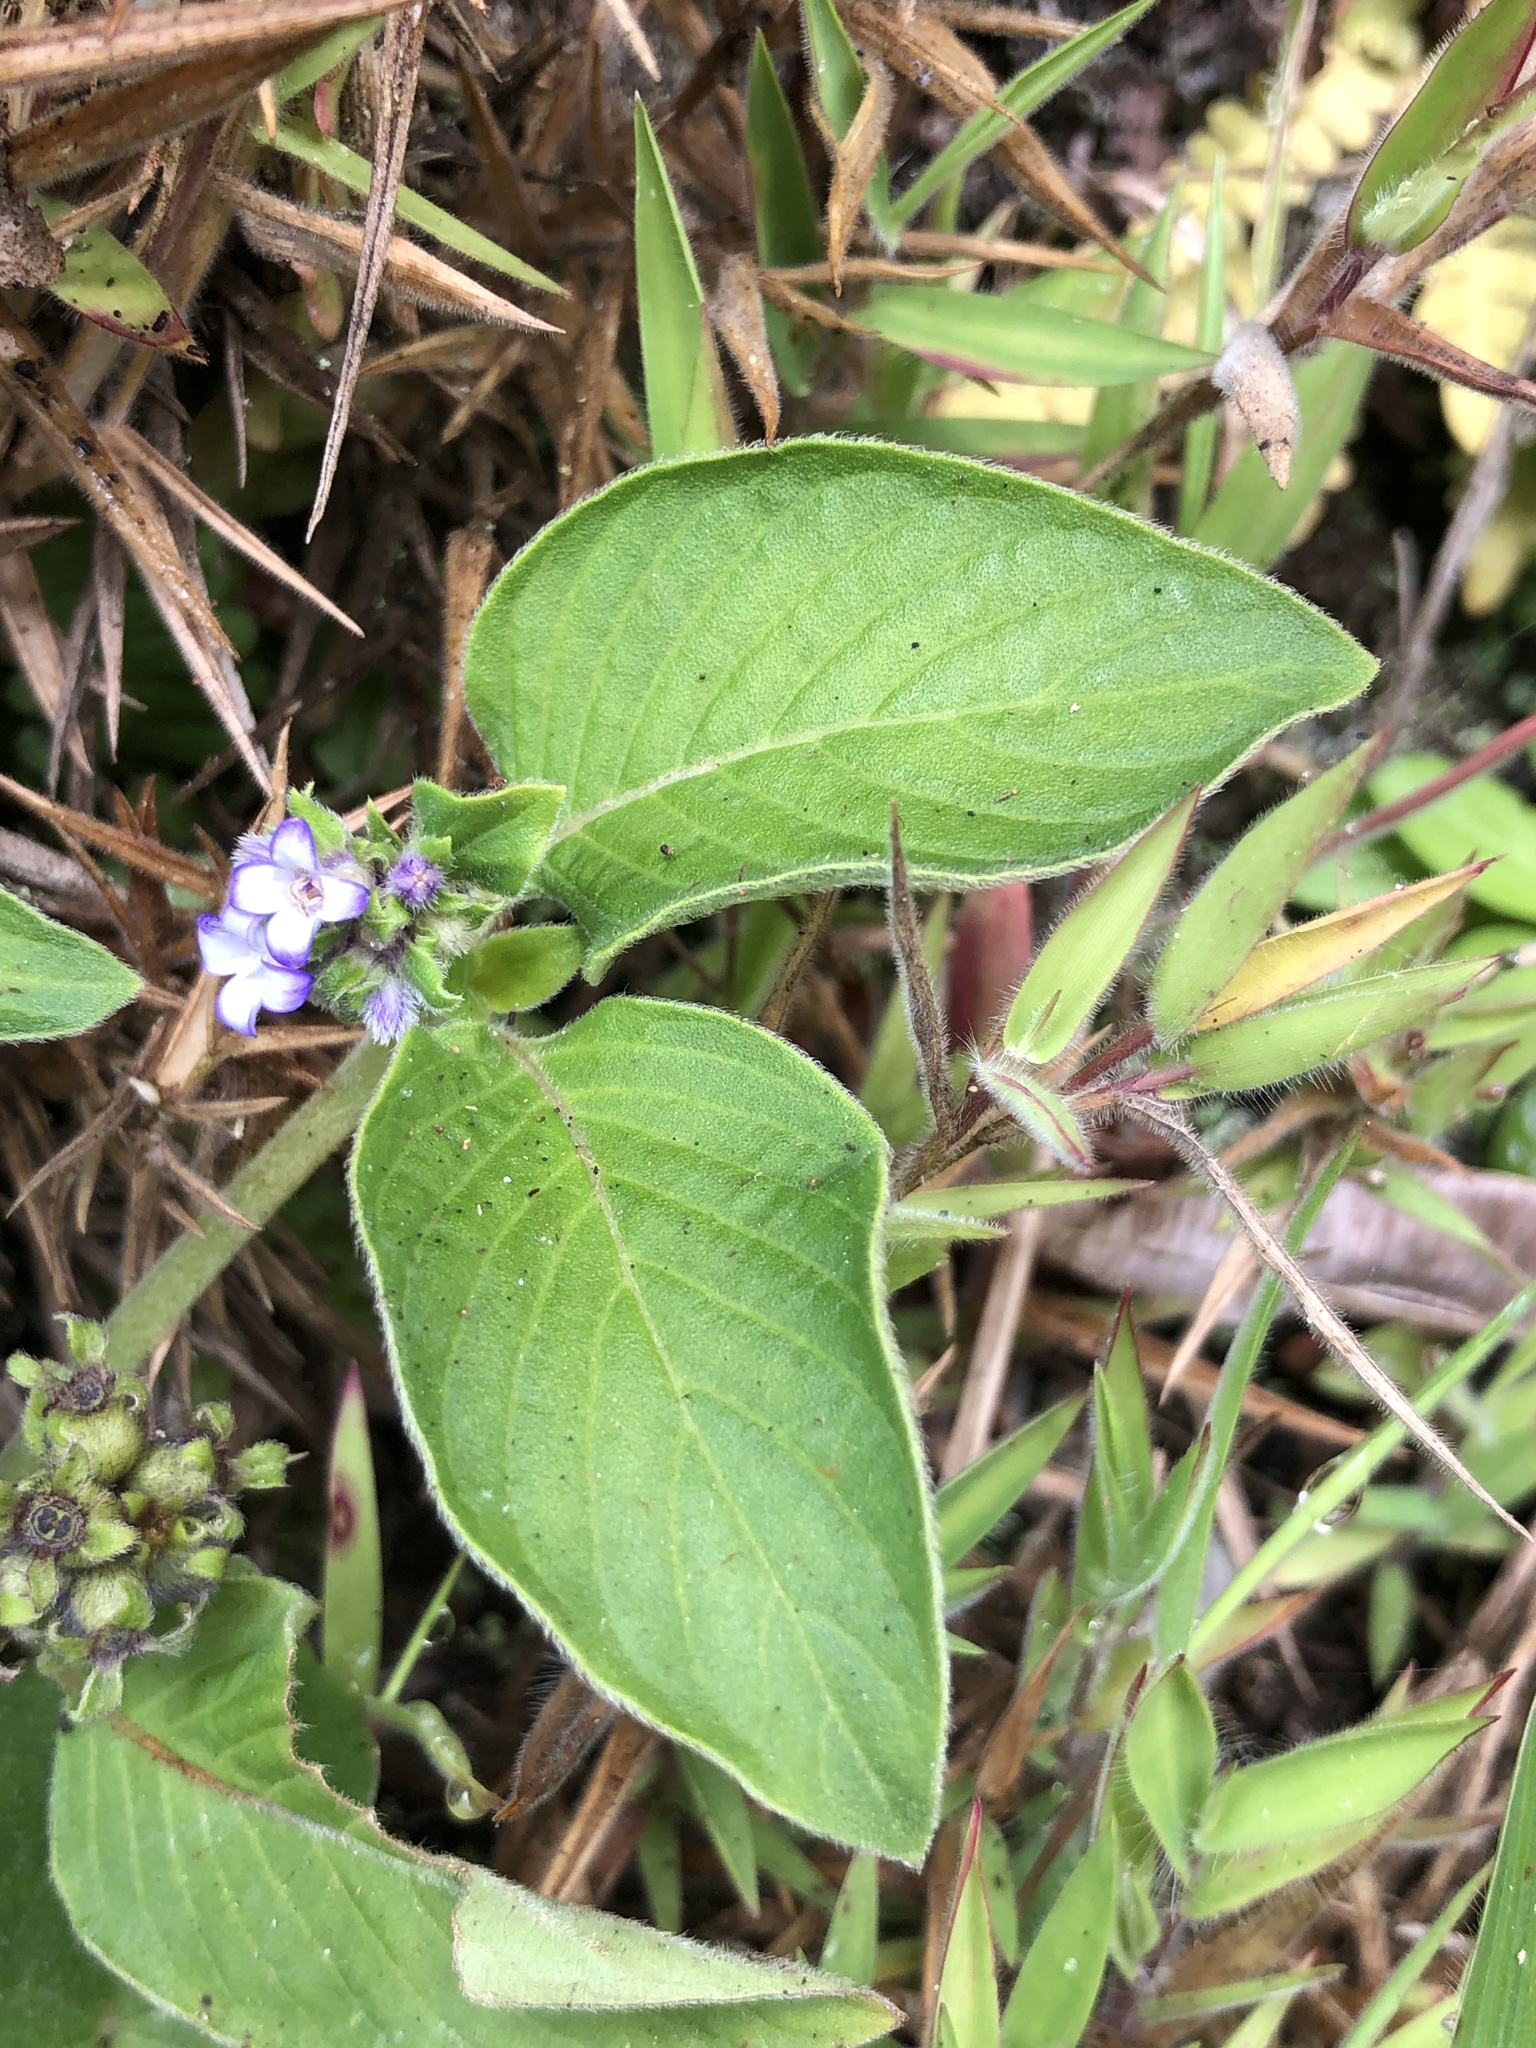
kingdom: Plantae
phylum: Tracheophyta
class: Magnoliopsida
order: Gentianales
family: Rubiaceae
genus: Coccocypselum
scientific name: Coccocypselum lanceolatum
